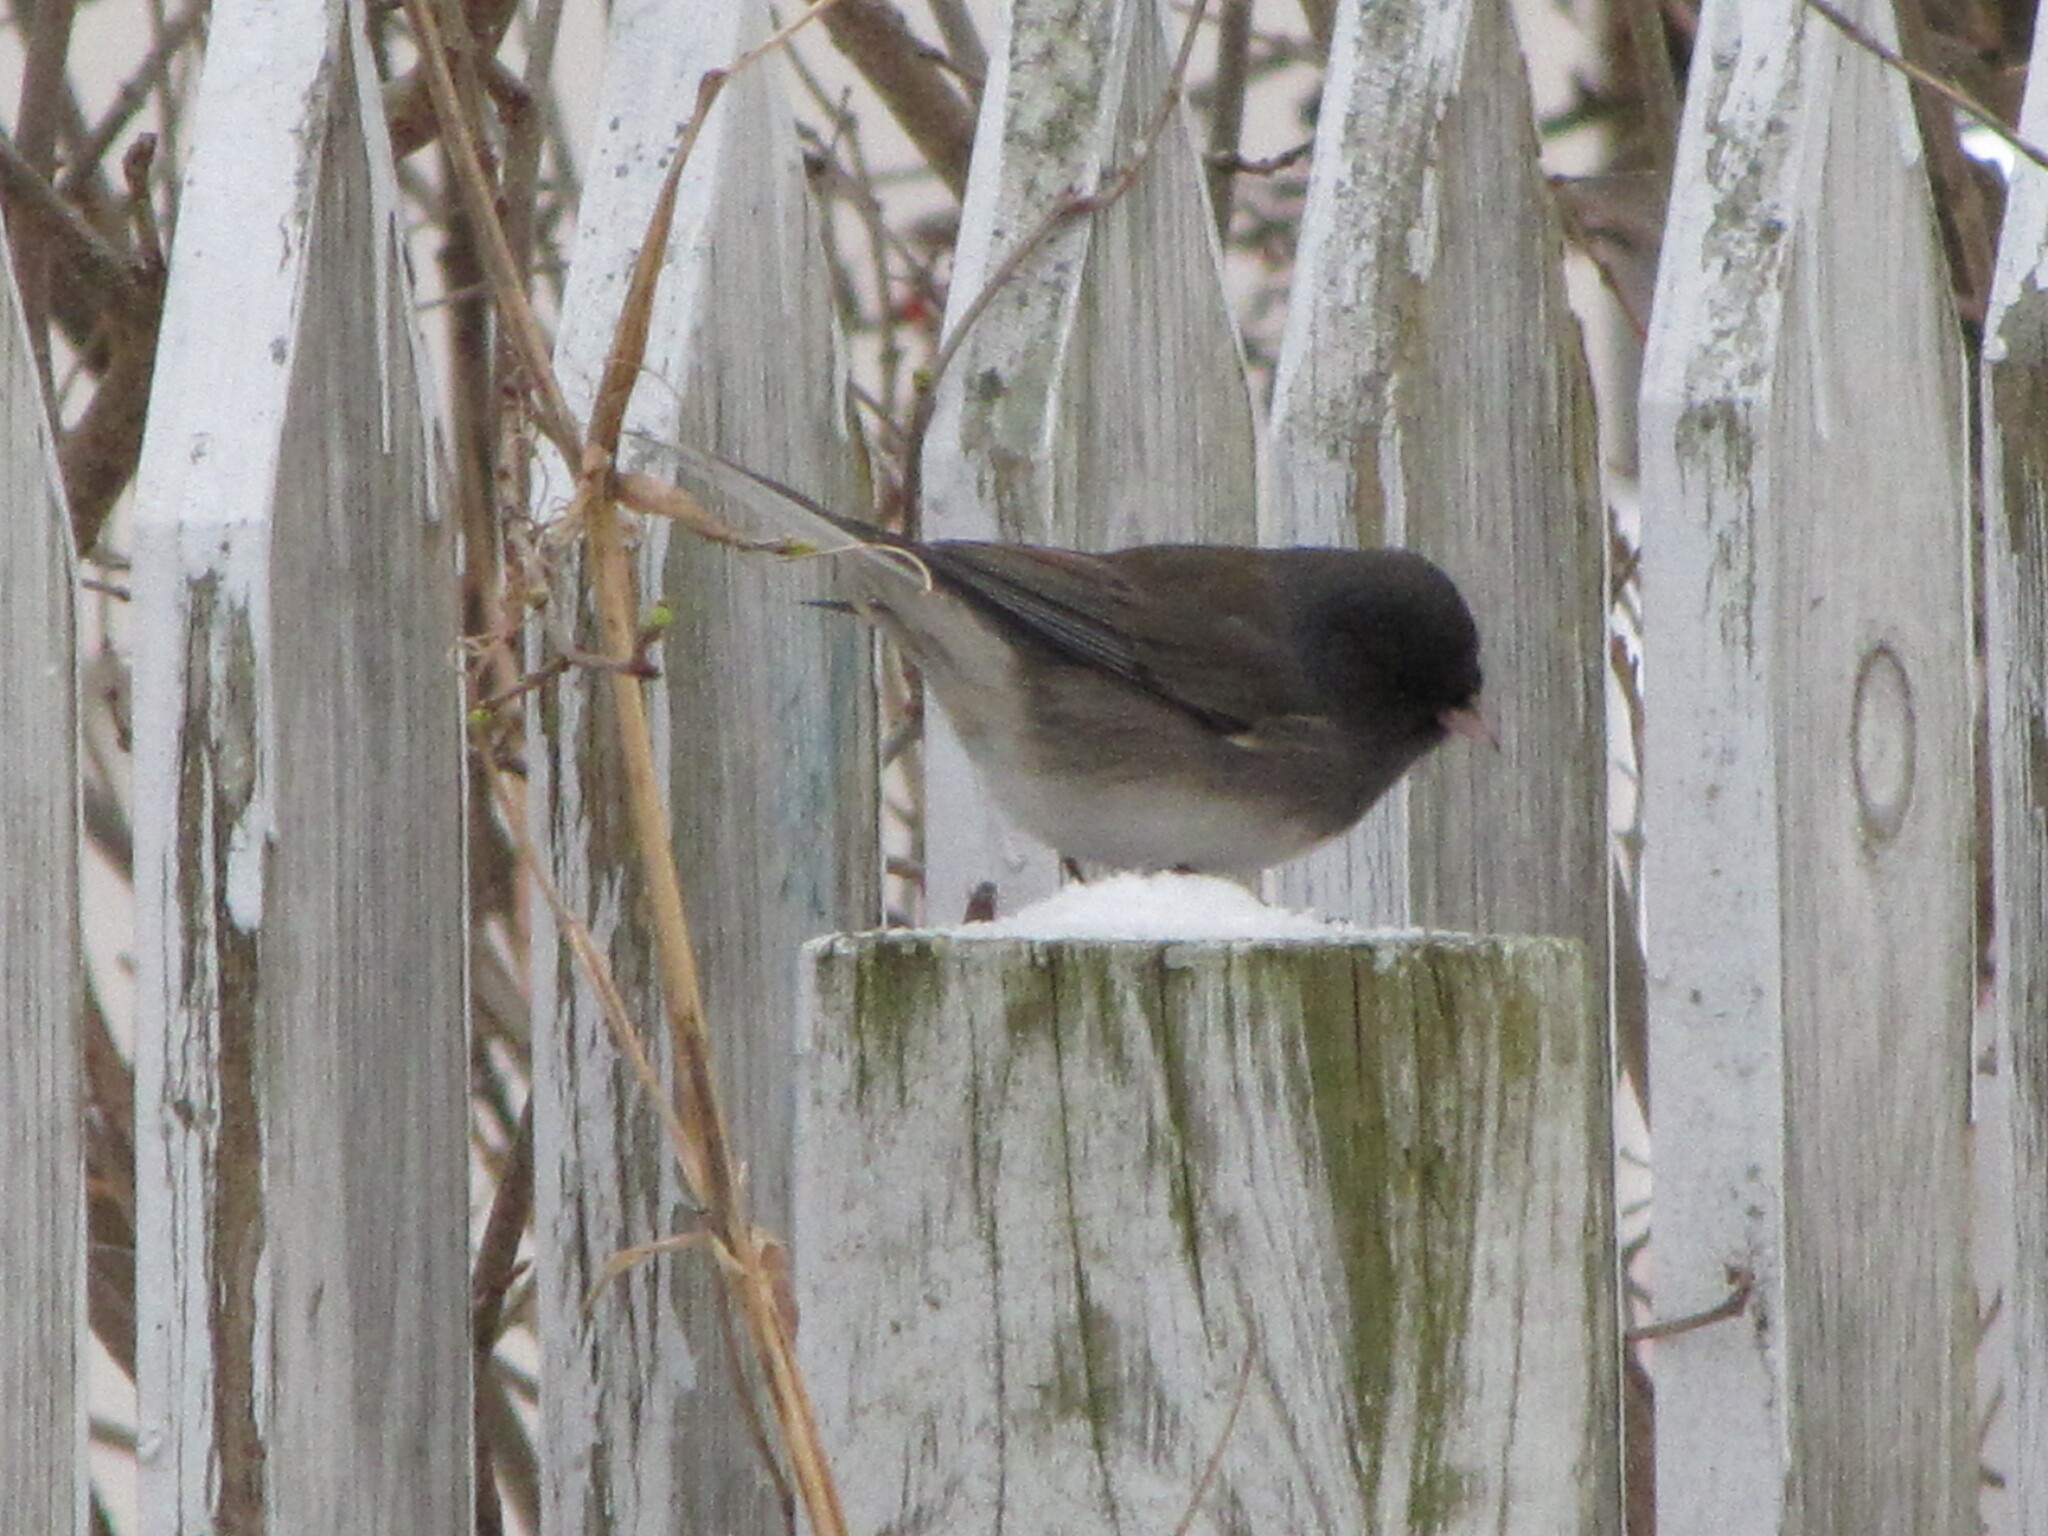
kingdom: Animalia
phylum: Chordata
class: Aves
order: Passeriformes
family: Passerellidae
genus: Junco
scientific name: Junco hyemalis
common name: Dark-eyed junco
